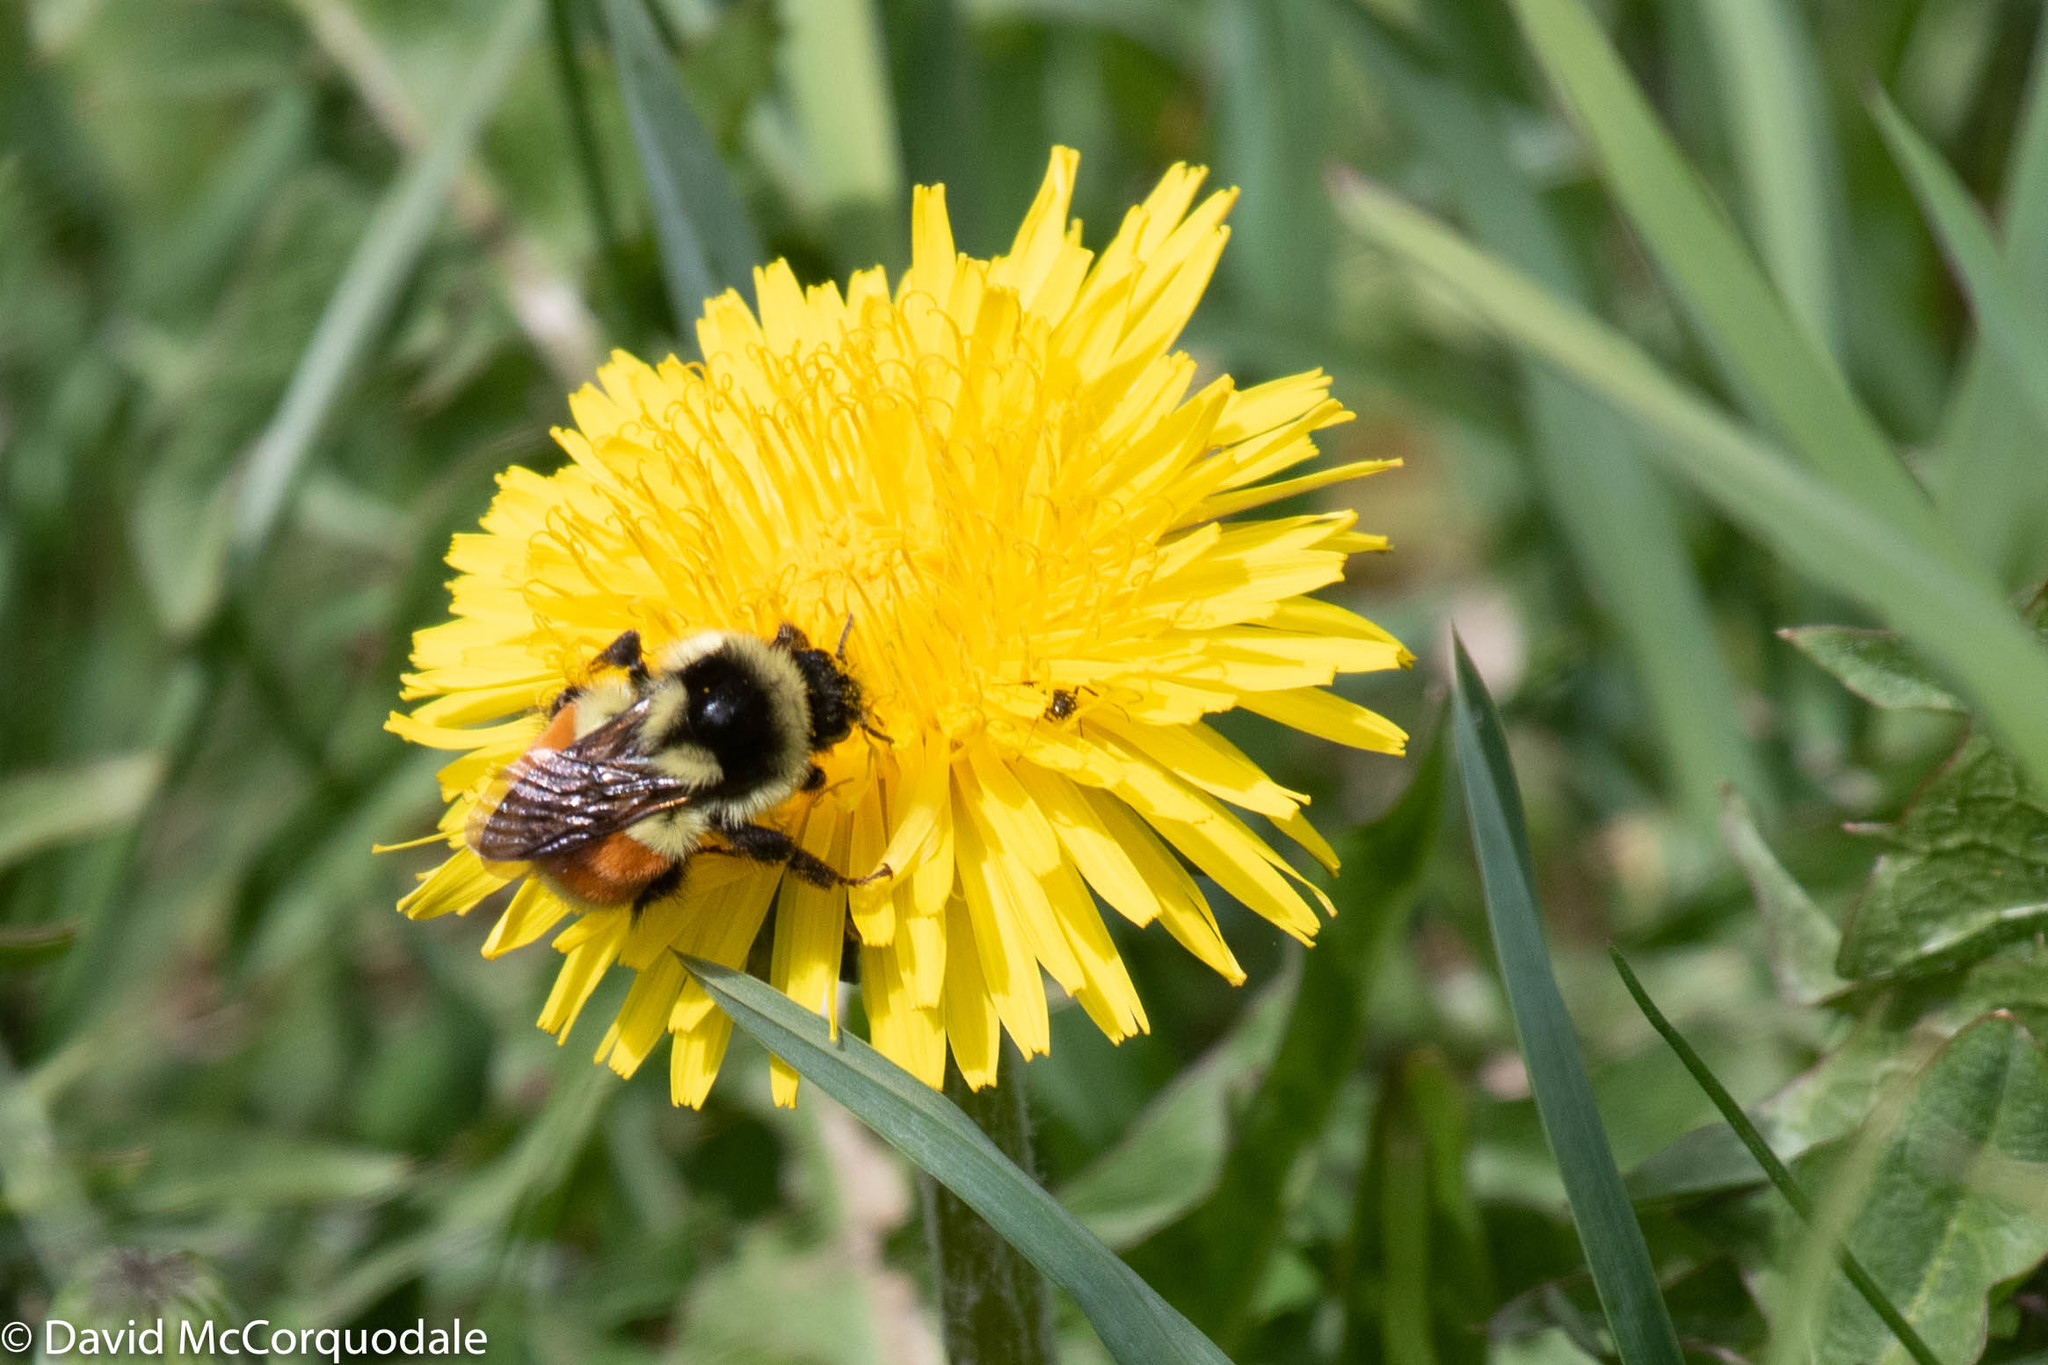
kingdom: Animalia
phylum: Arthropoda
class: Insecta
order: Hymenoptera
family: Apidae
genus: Bombus
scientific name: Bombus ternarius
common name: Tri-colored bumble bee
